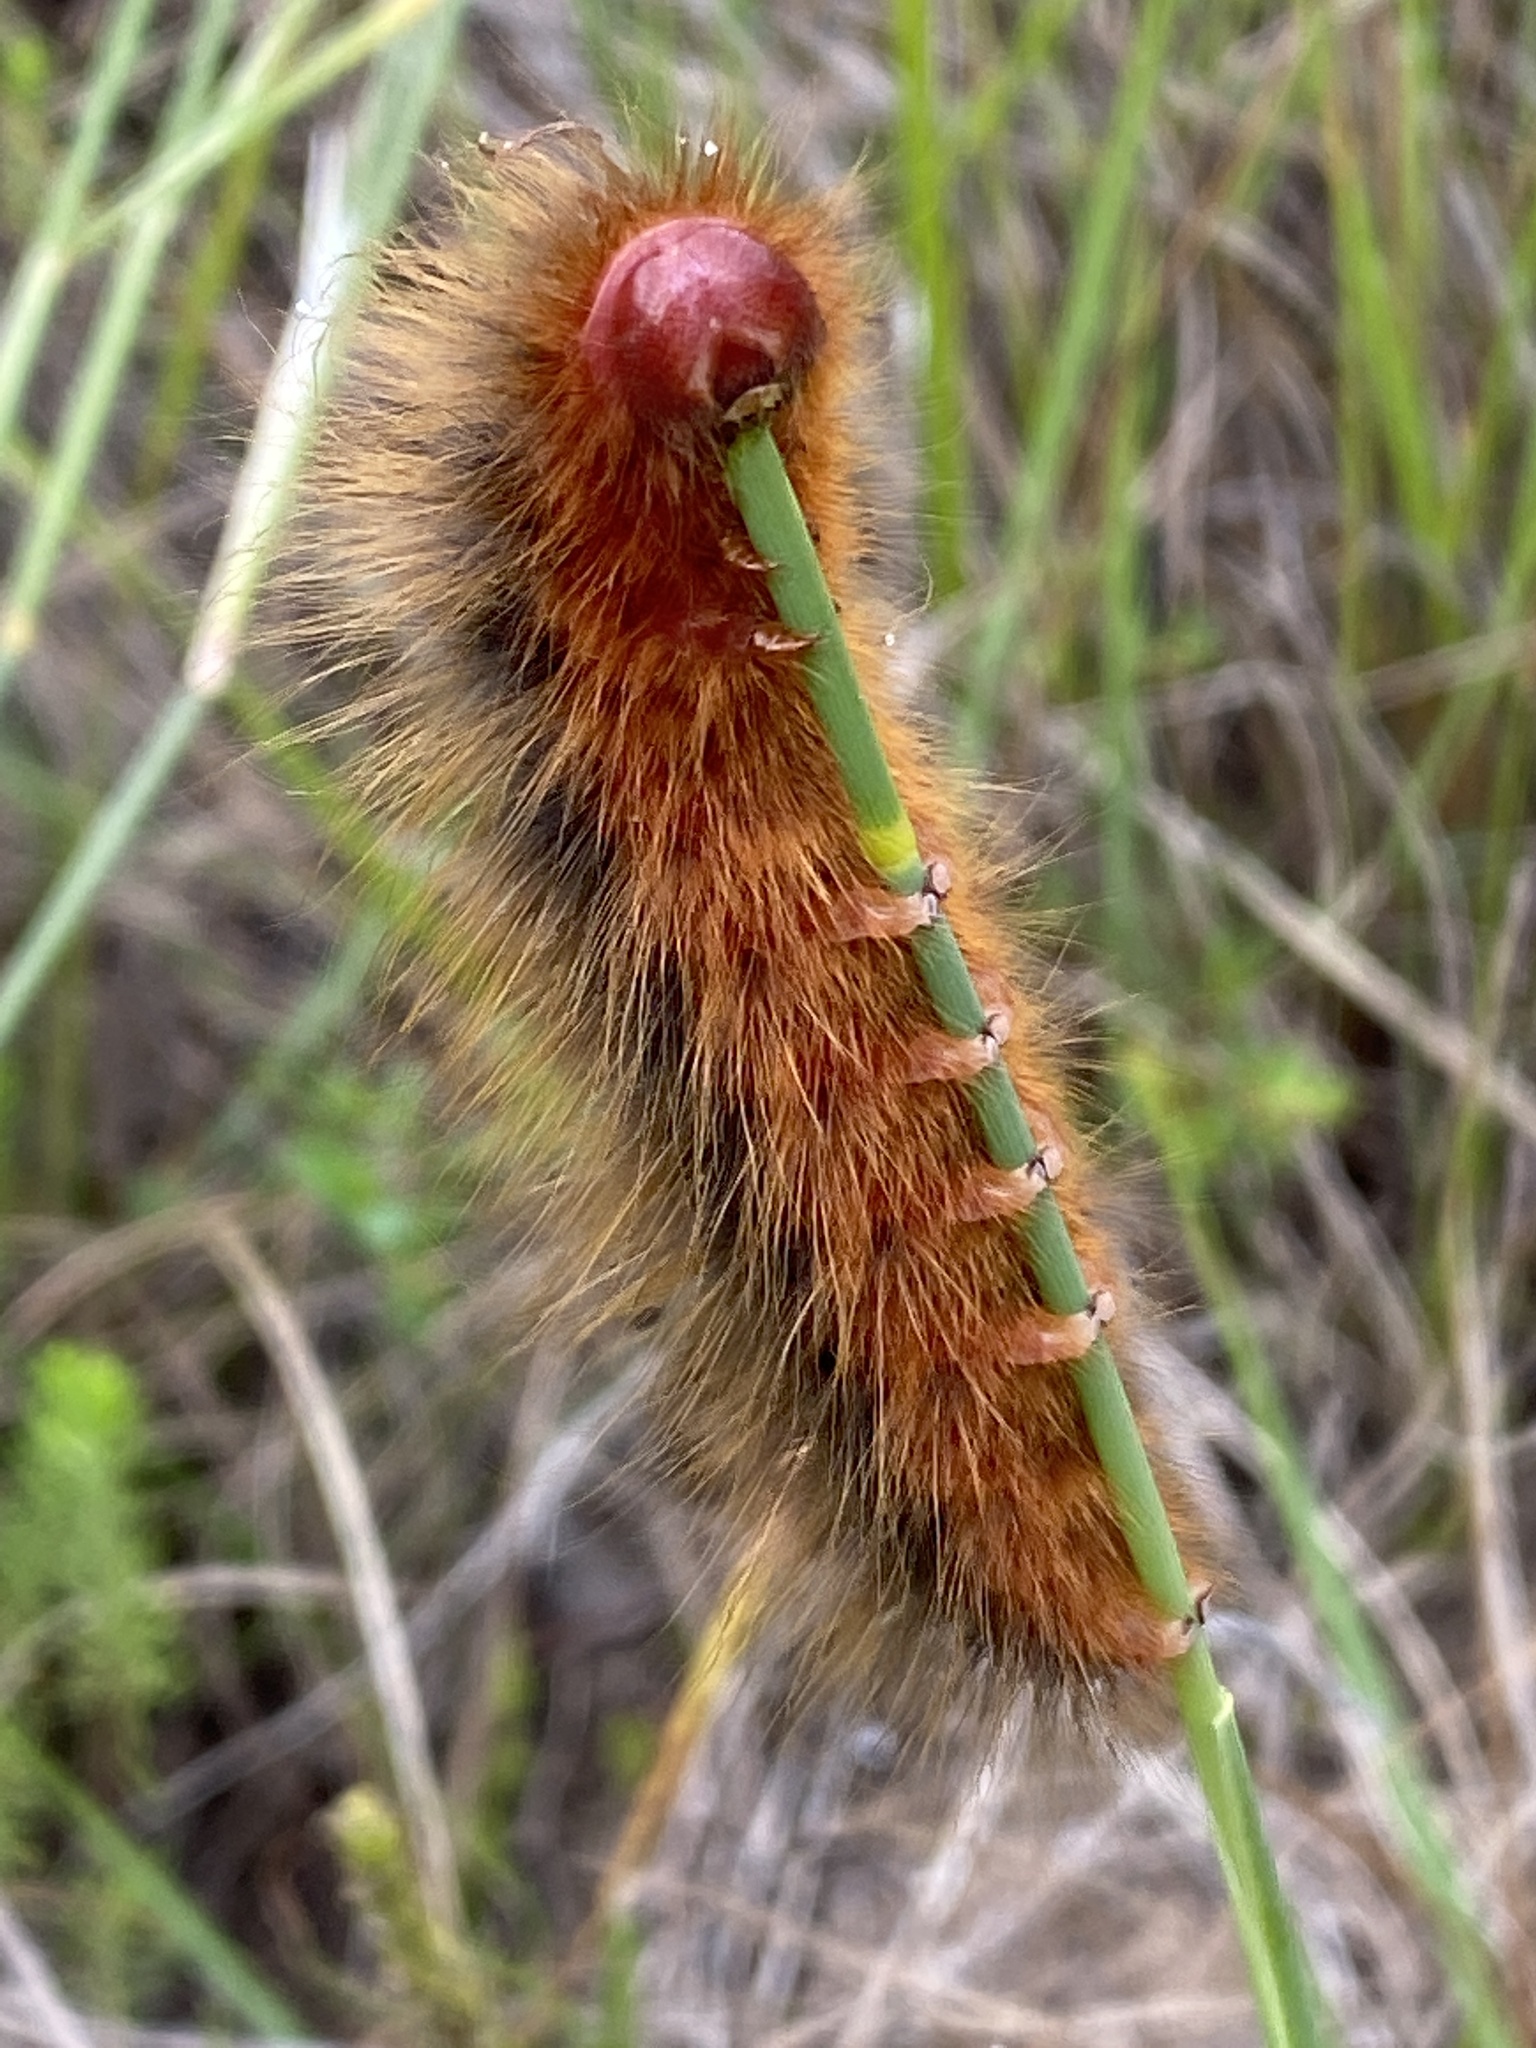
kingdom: Animalia
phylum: Arthropoda
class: Insecta
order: Lepidoptera
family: Eupterotidae
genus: Phyllalia
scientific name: Phyllalia patens
